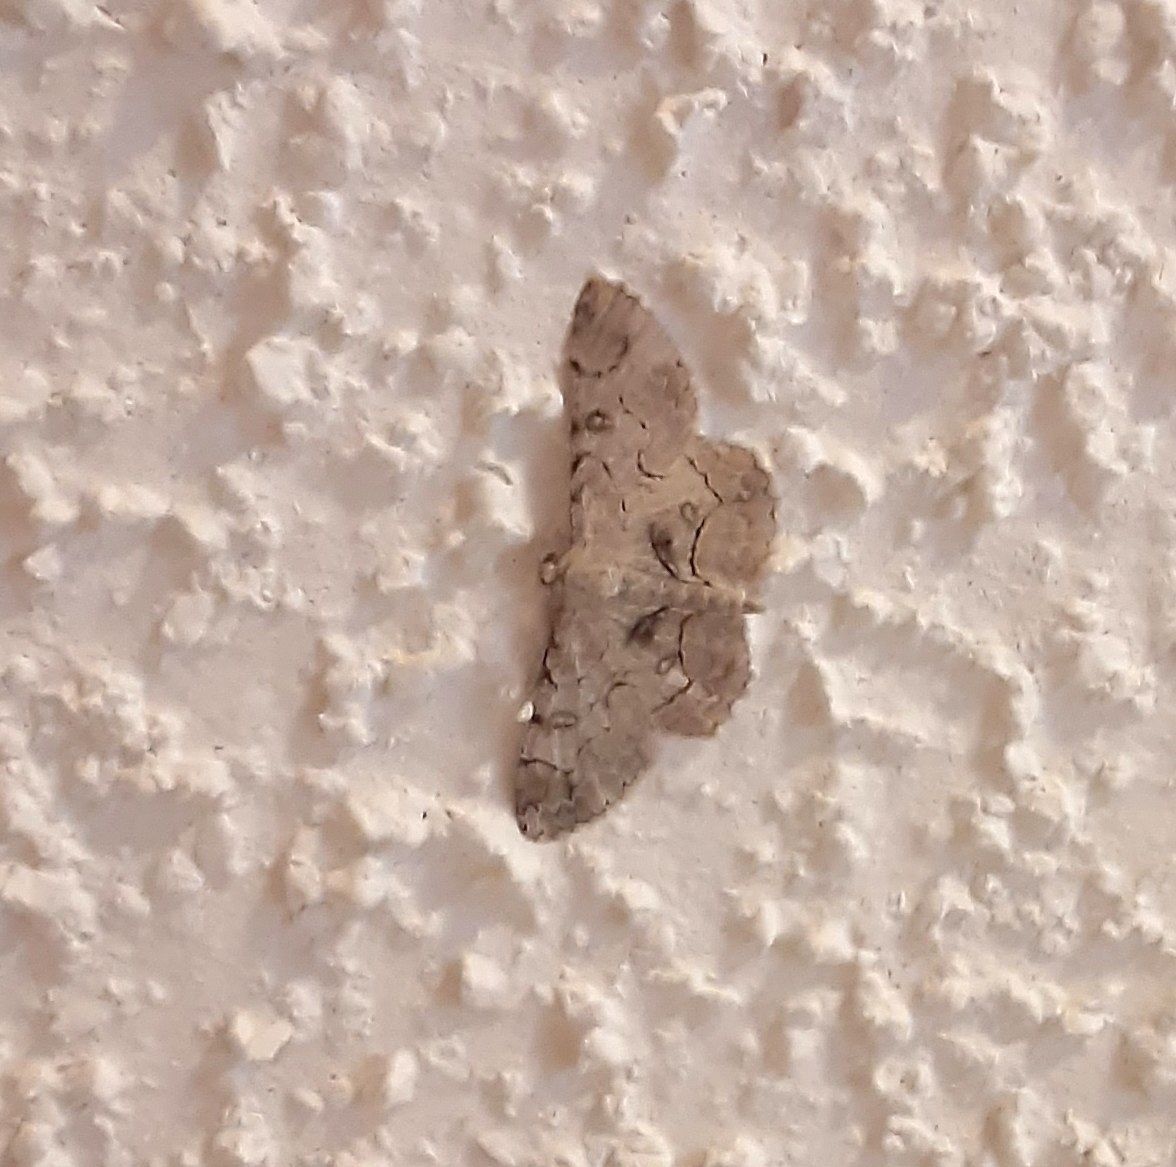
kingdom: Animalia
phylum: Arthropoda
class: Insecta
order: Lepidoptera
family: Geometridae
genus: Iridopsis
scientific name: Iridopsis larvaria
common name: Bent-line gray
